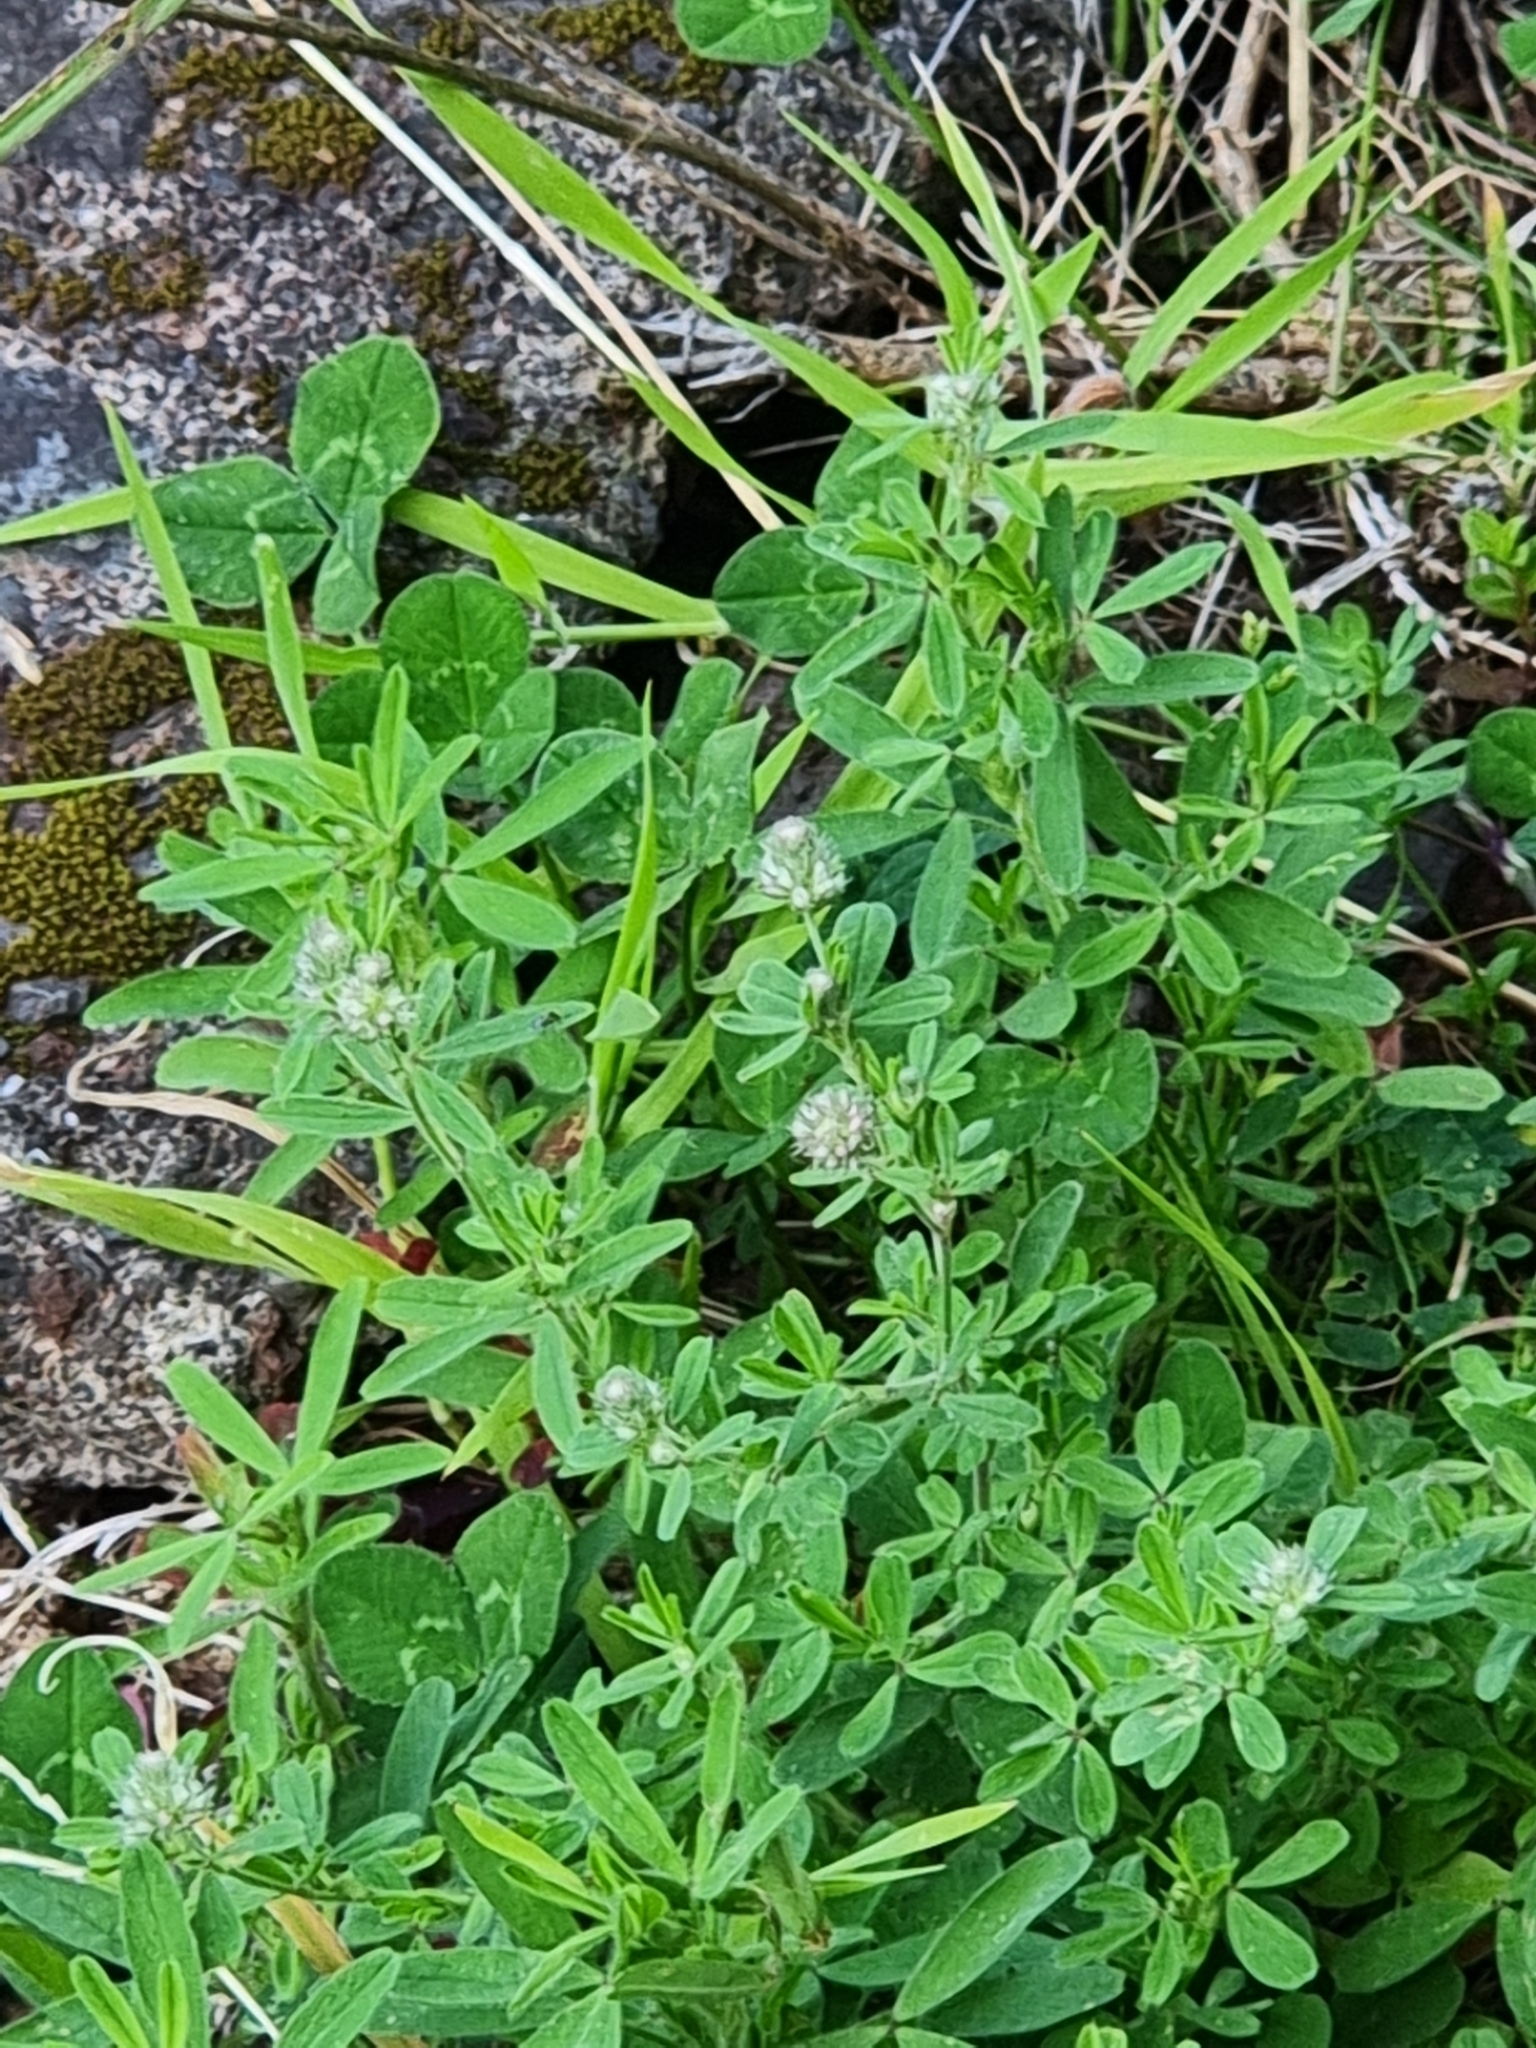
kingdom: Plantae
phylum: Tracheophyta
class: Magnoliopsida
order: Fabales
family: Fabaceae
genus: Trifolium
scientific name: Trifolium arvense
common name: Hare's-foot clover
